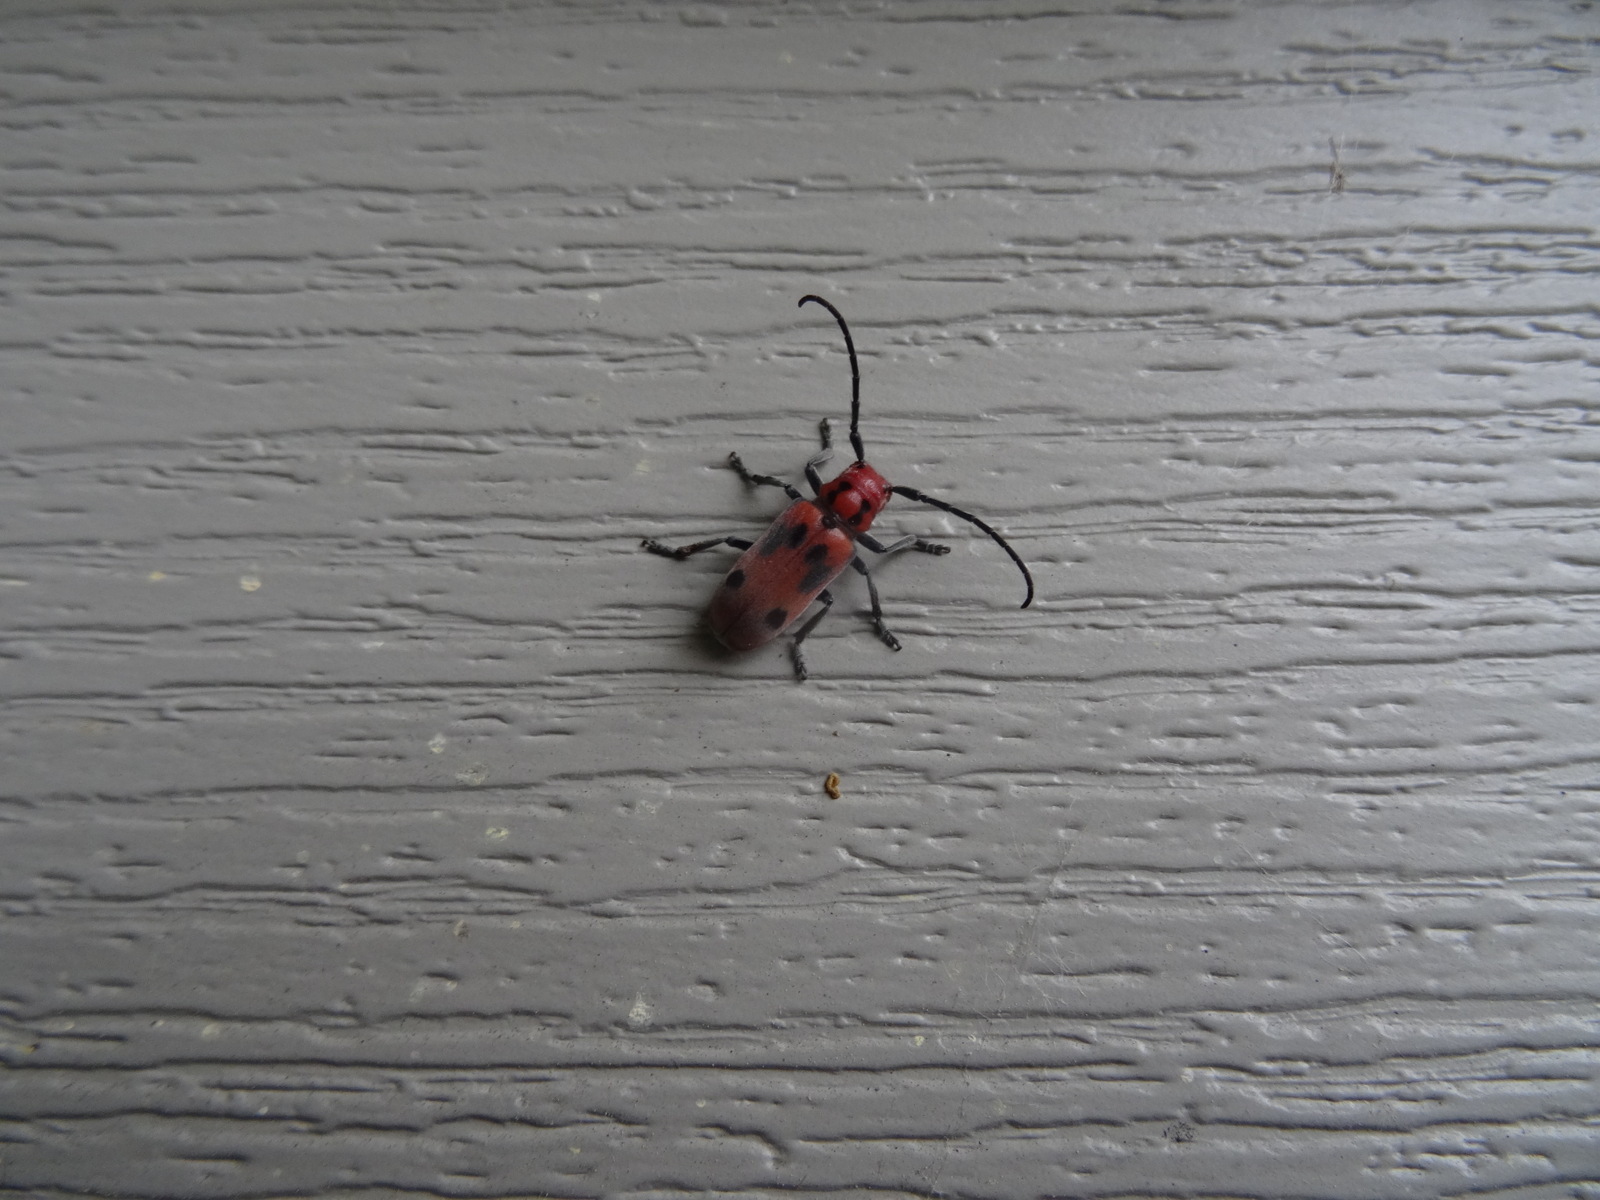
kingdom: Animalia
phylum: Arthropoda
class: Insecta
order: Coleoptera
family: Cerambycidae
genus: Tetraopes
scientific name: Tetraopes tetrophthalmus
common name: Red milkweed beetle
